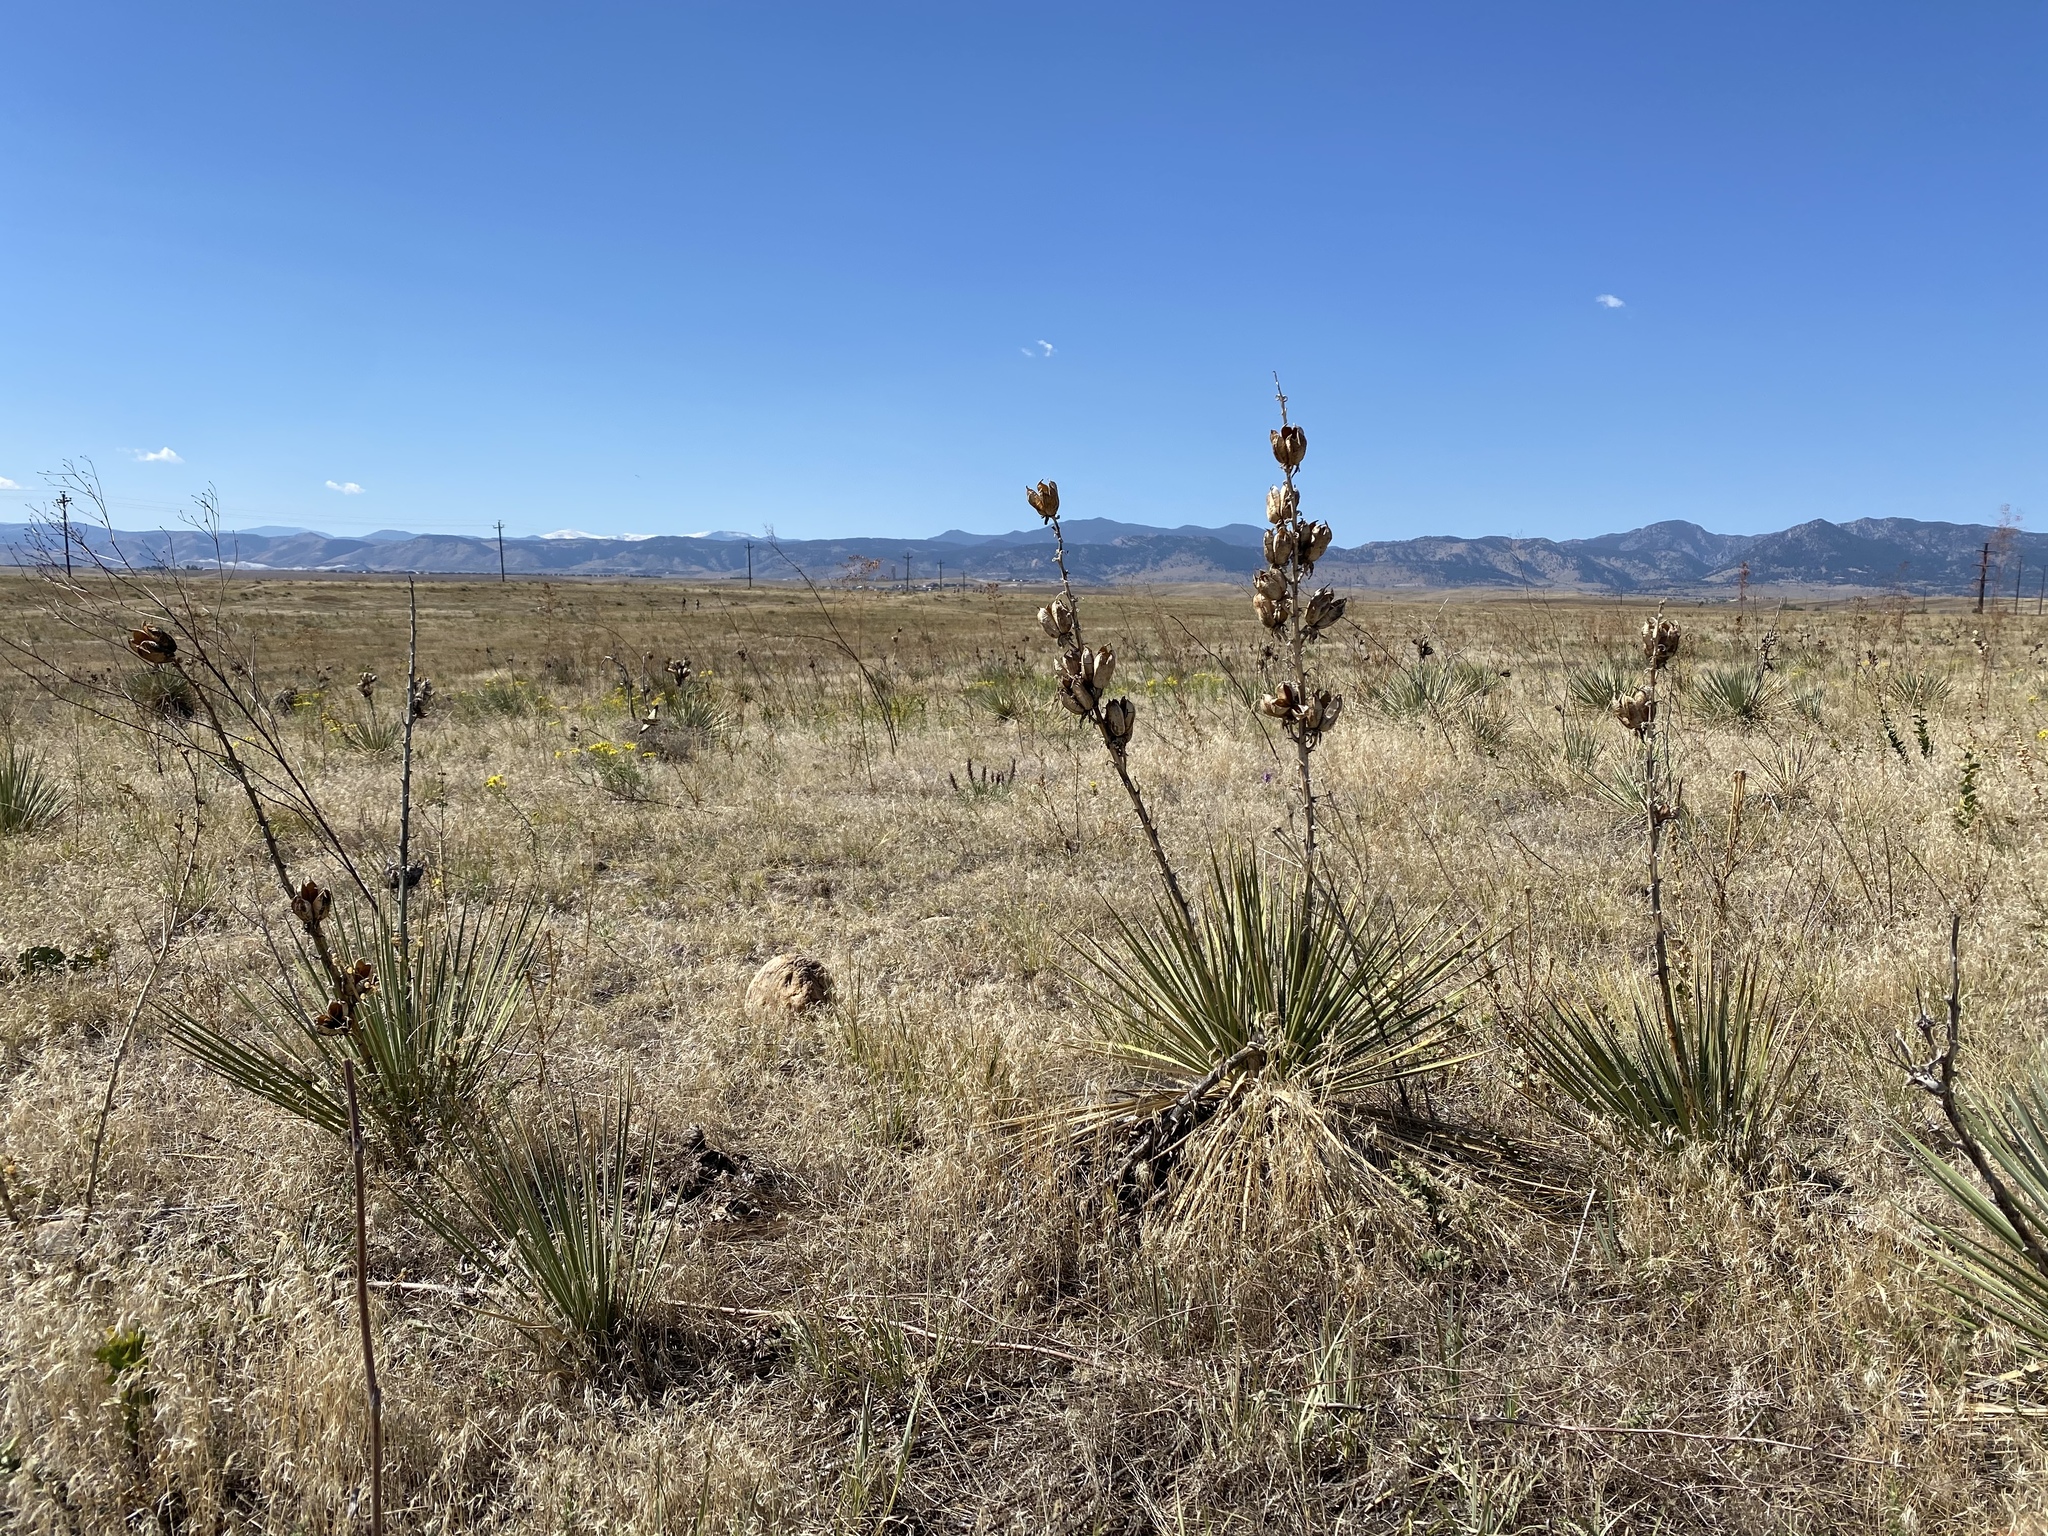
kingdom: Plantae
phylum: Tracheophyta
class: Liliopsida
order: Asparagales
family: Asparagaceae
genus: Yucca
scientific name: Yucca glauca
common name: Great plains yucca
